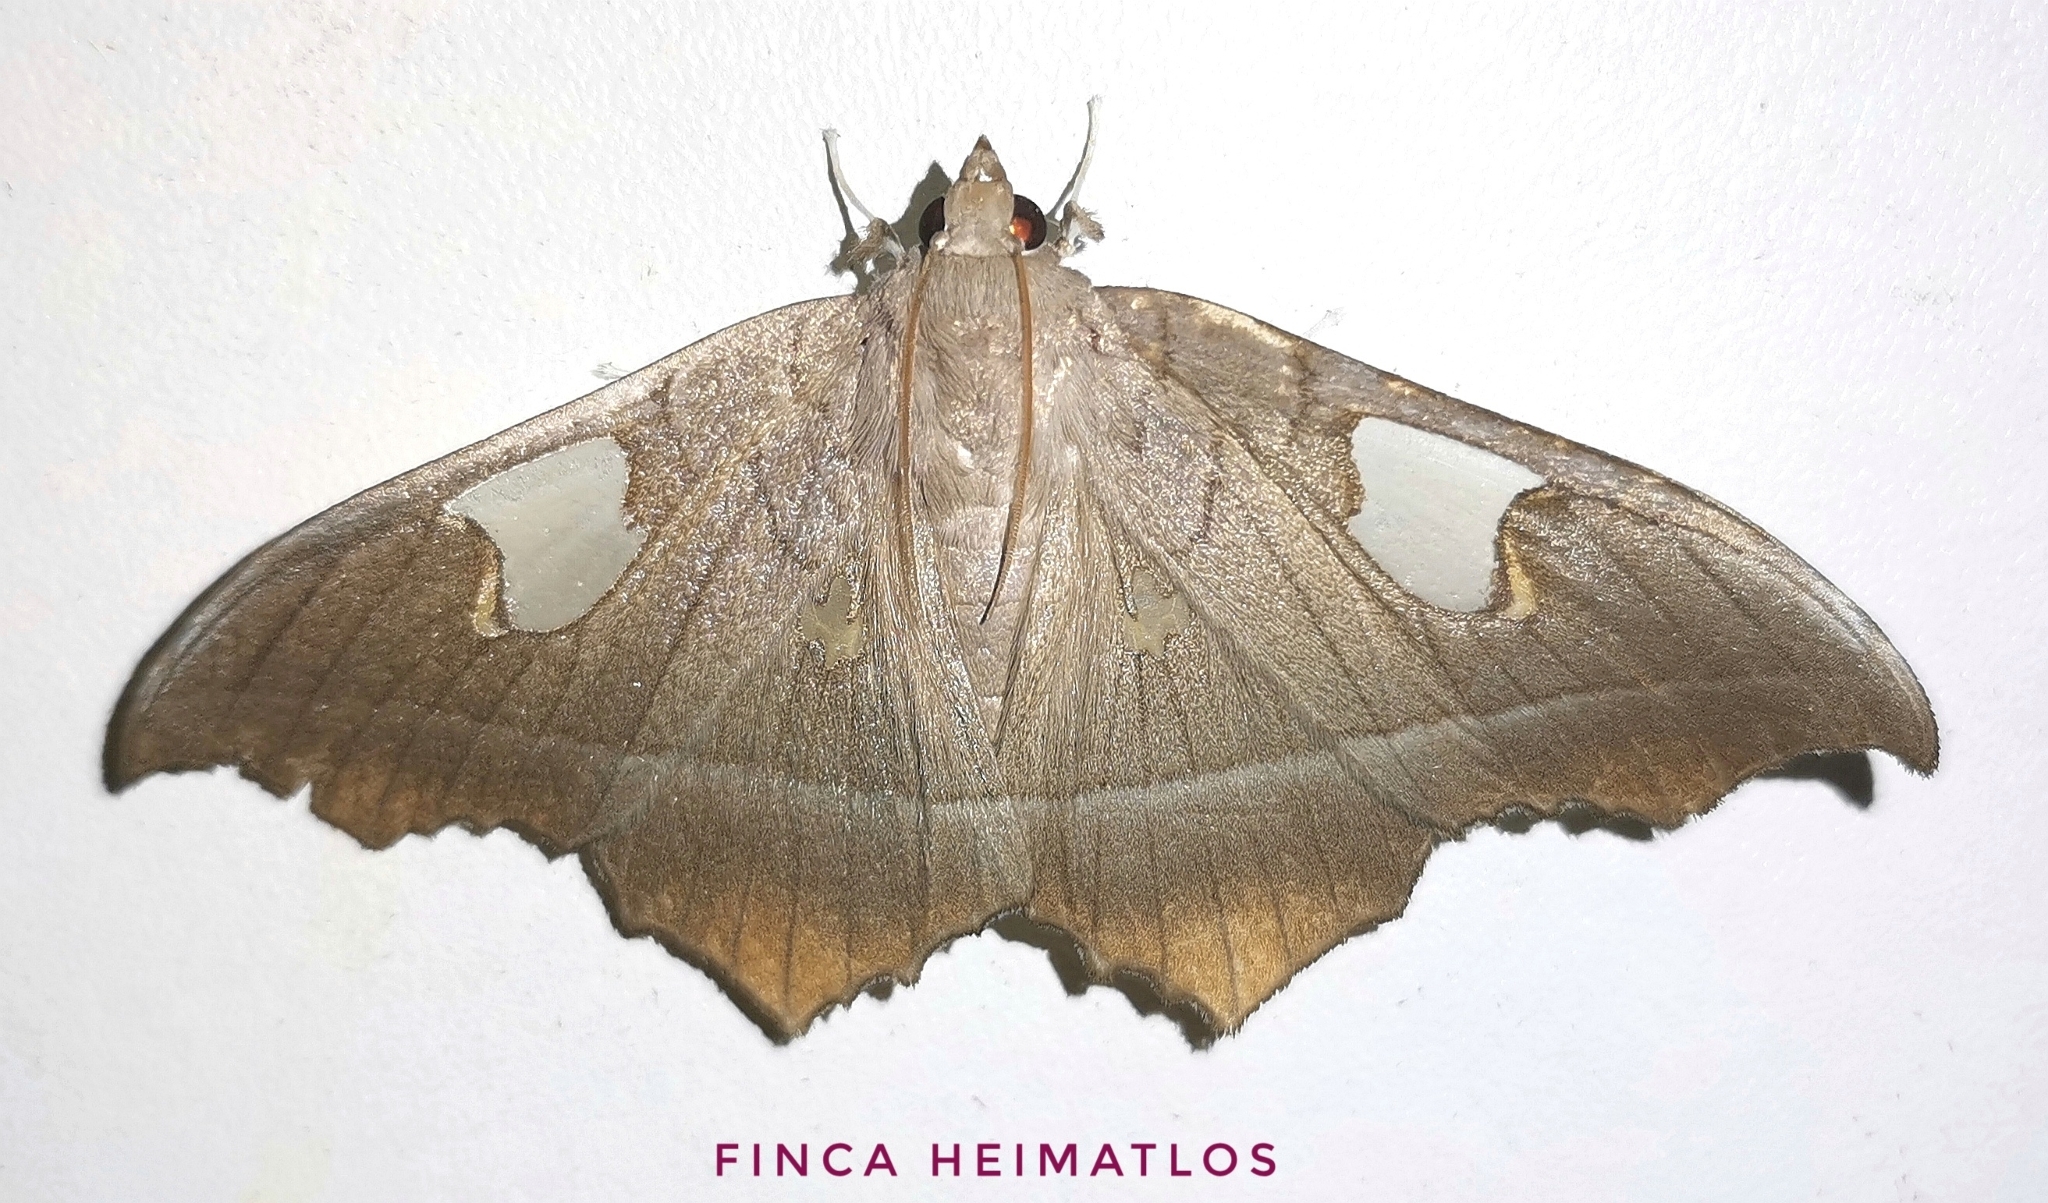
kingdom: Animalia
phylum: Arthropoda
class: Insecta
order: Lepidoptera
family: Crambidae
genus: Midila
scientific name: Midila quadrifenestrata
